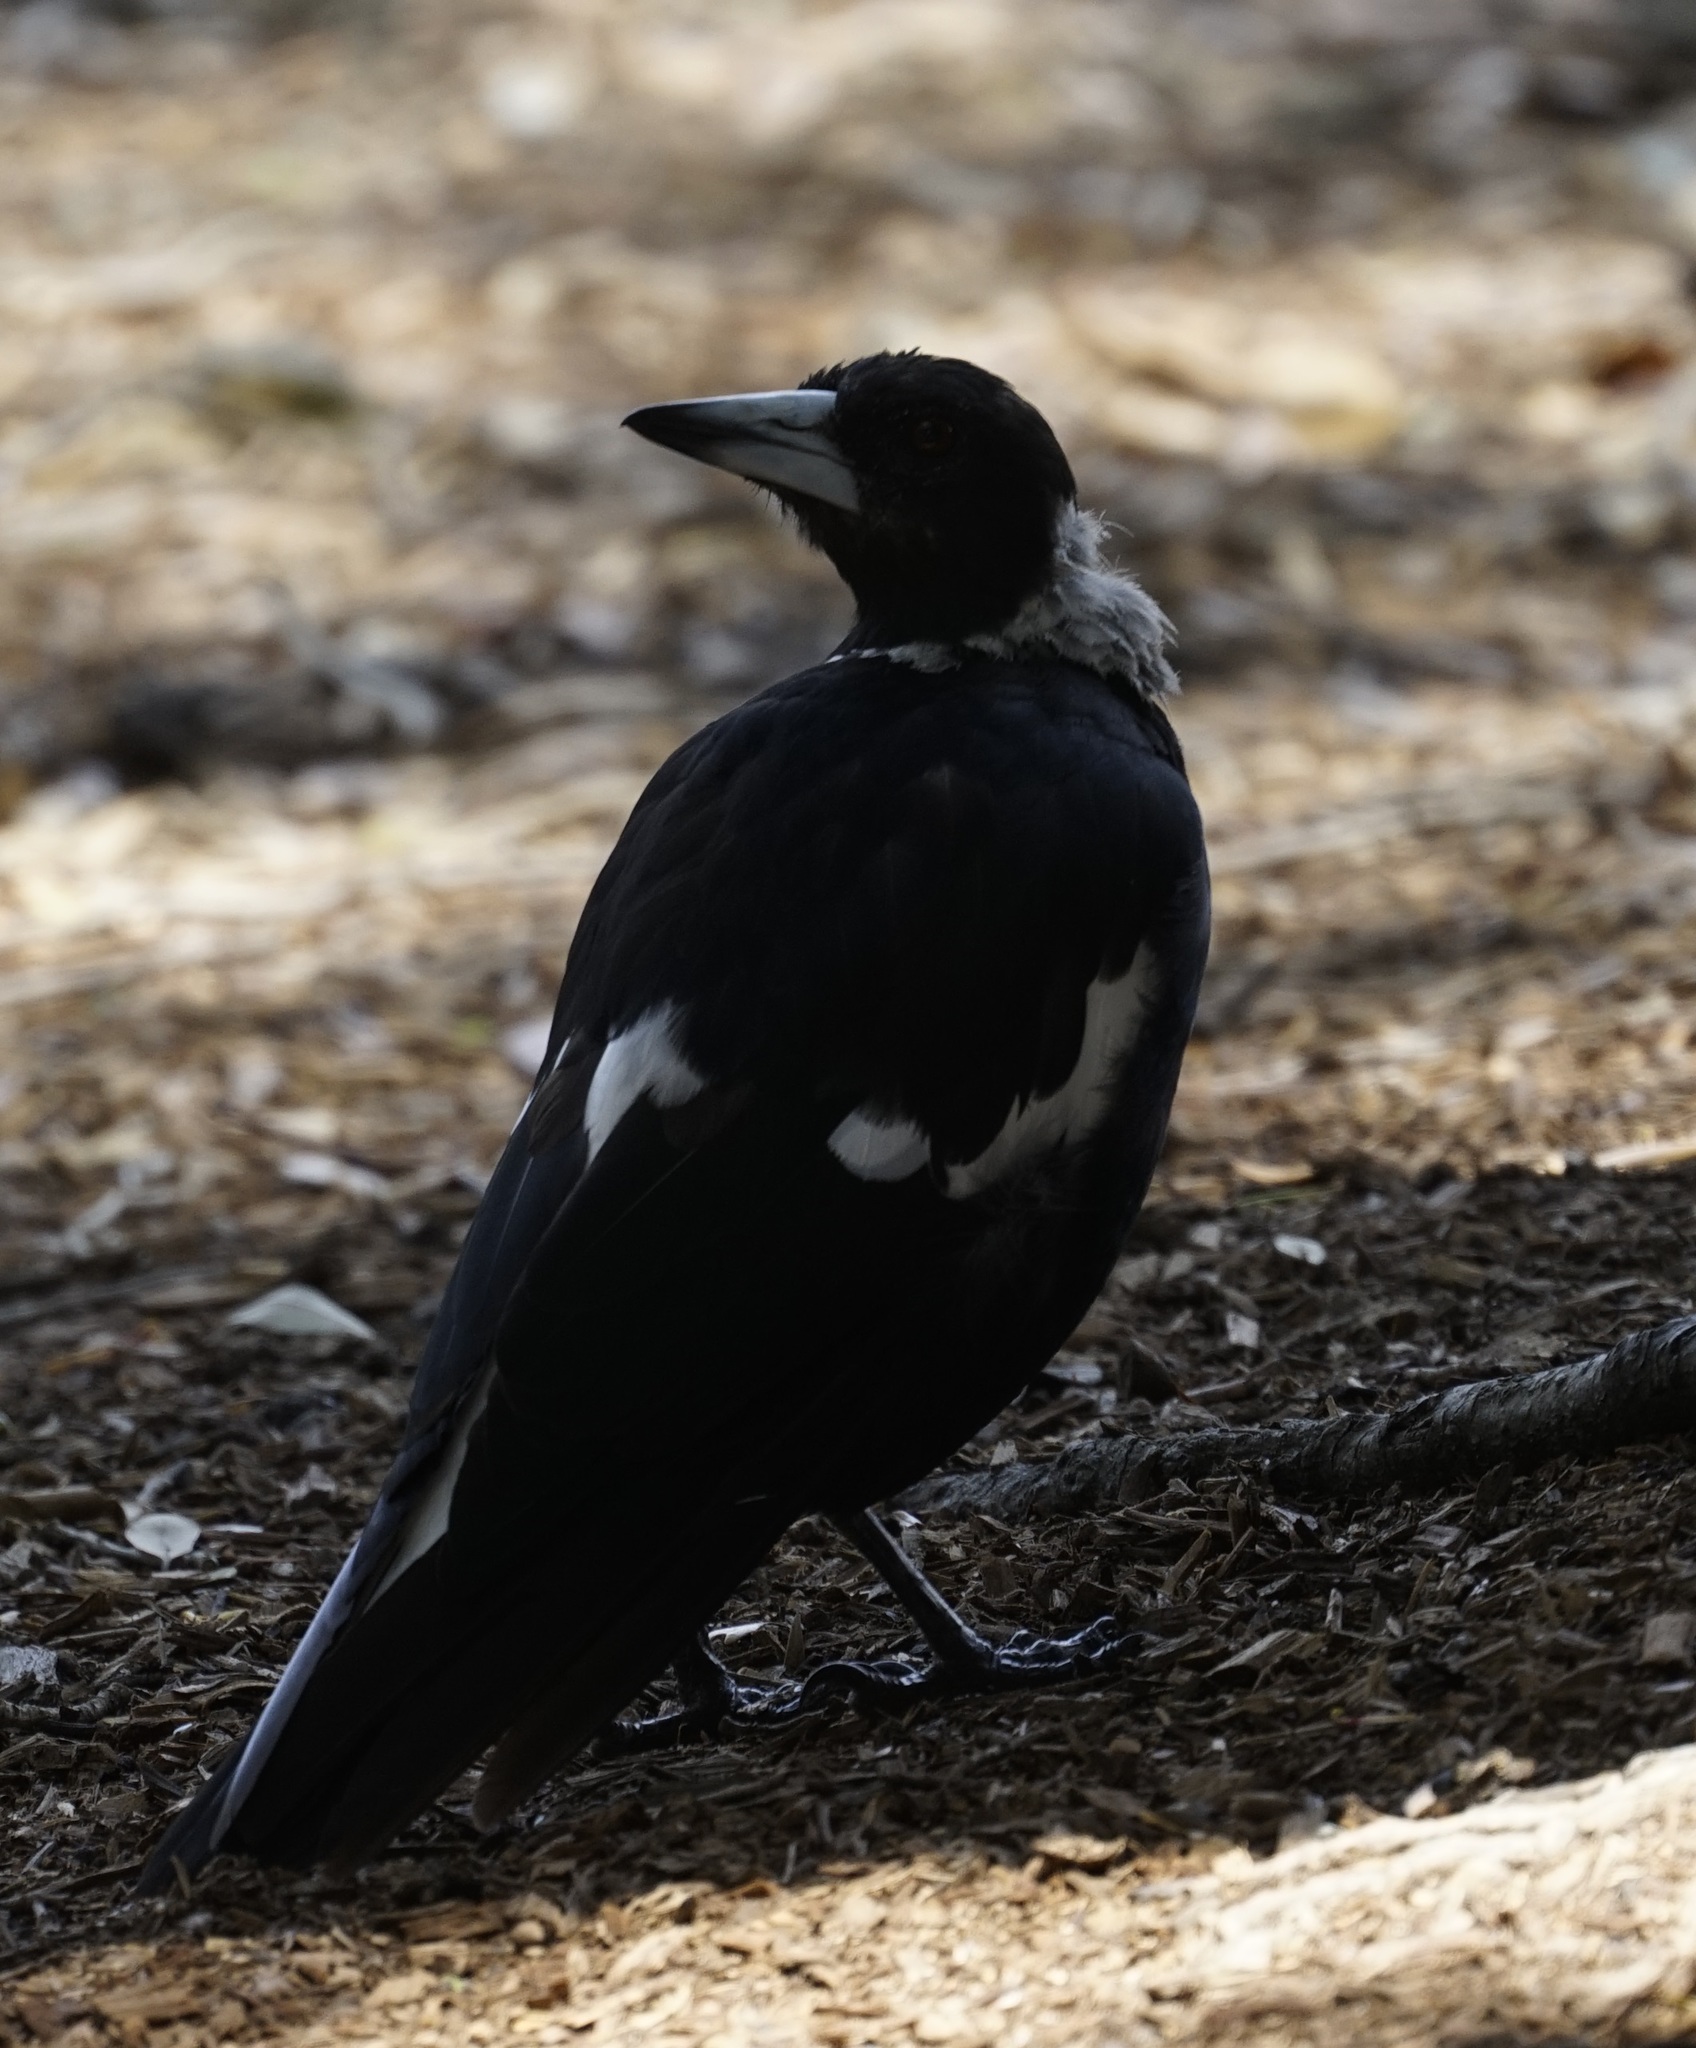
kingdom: Animalia
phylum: Chordata
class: Aves
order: Passeriformes
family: Cracticidae
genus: Gymnorhina
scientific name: Gymnorhina tibicen
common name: Australian magpie
